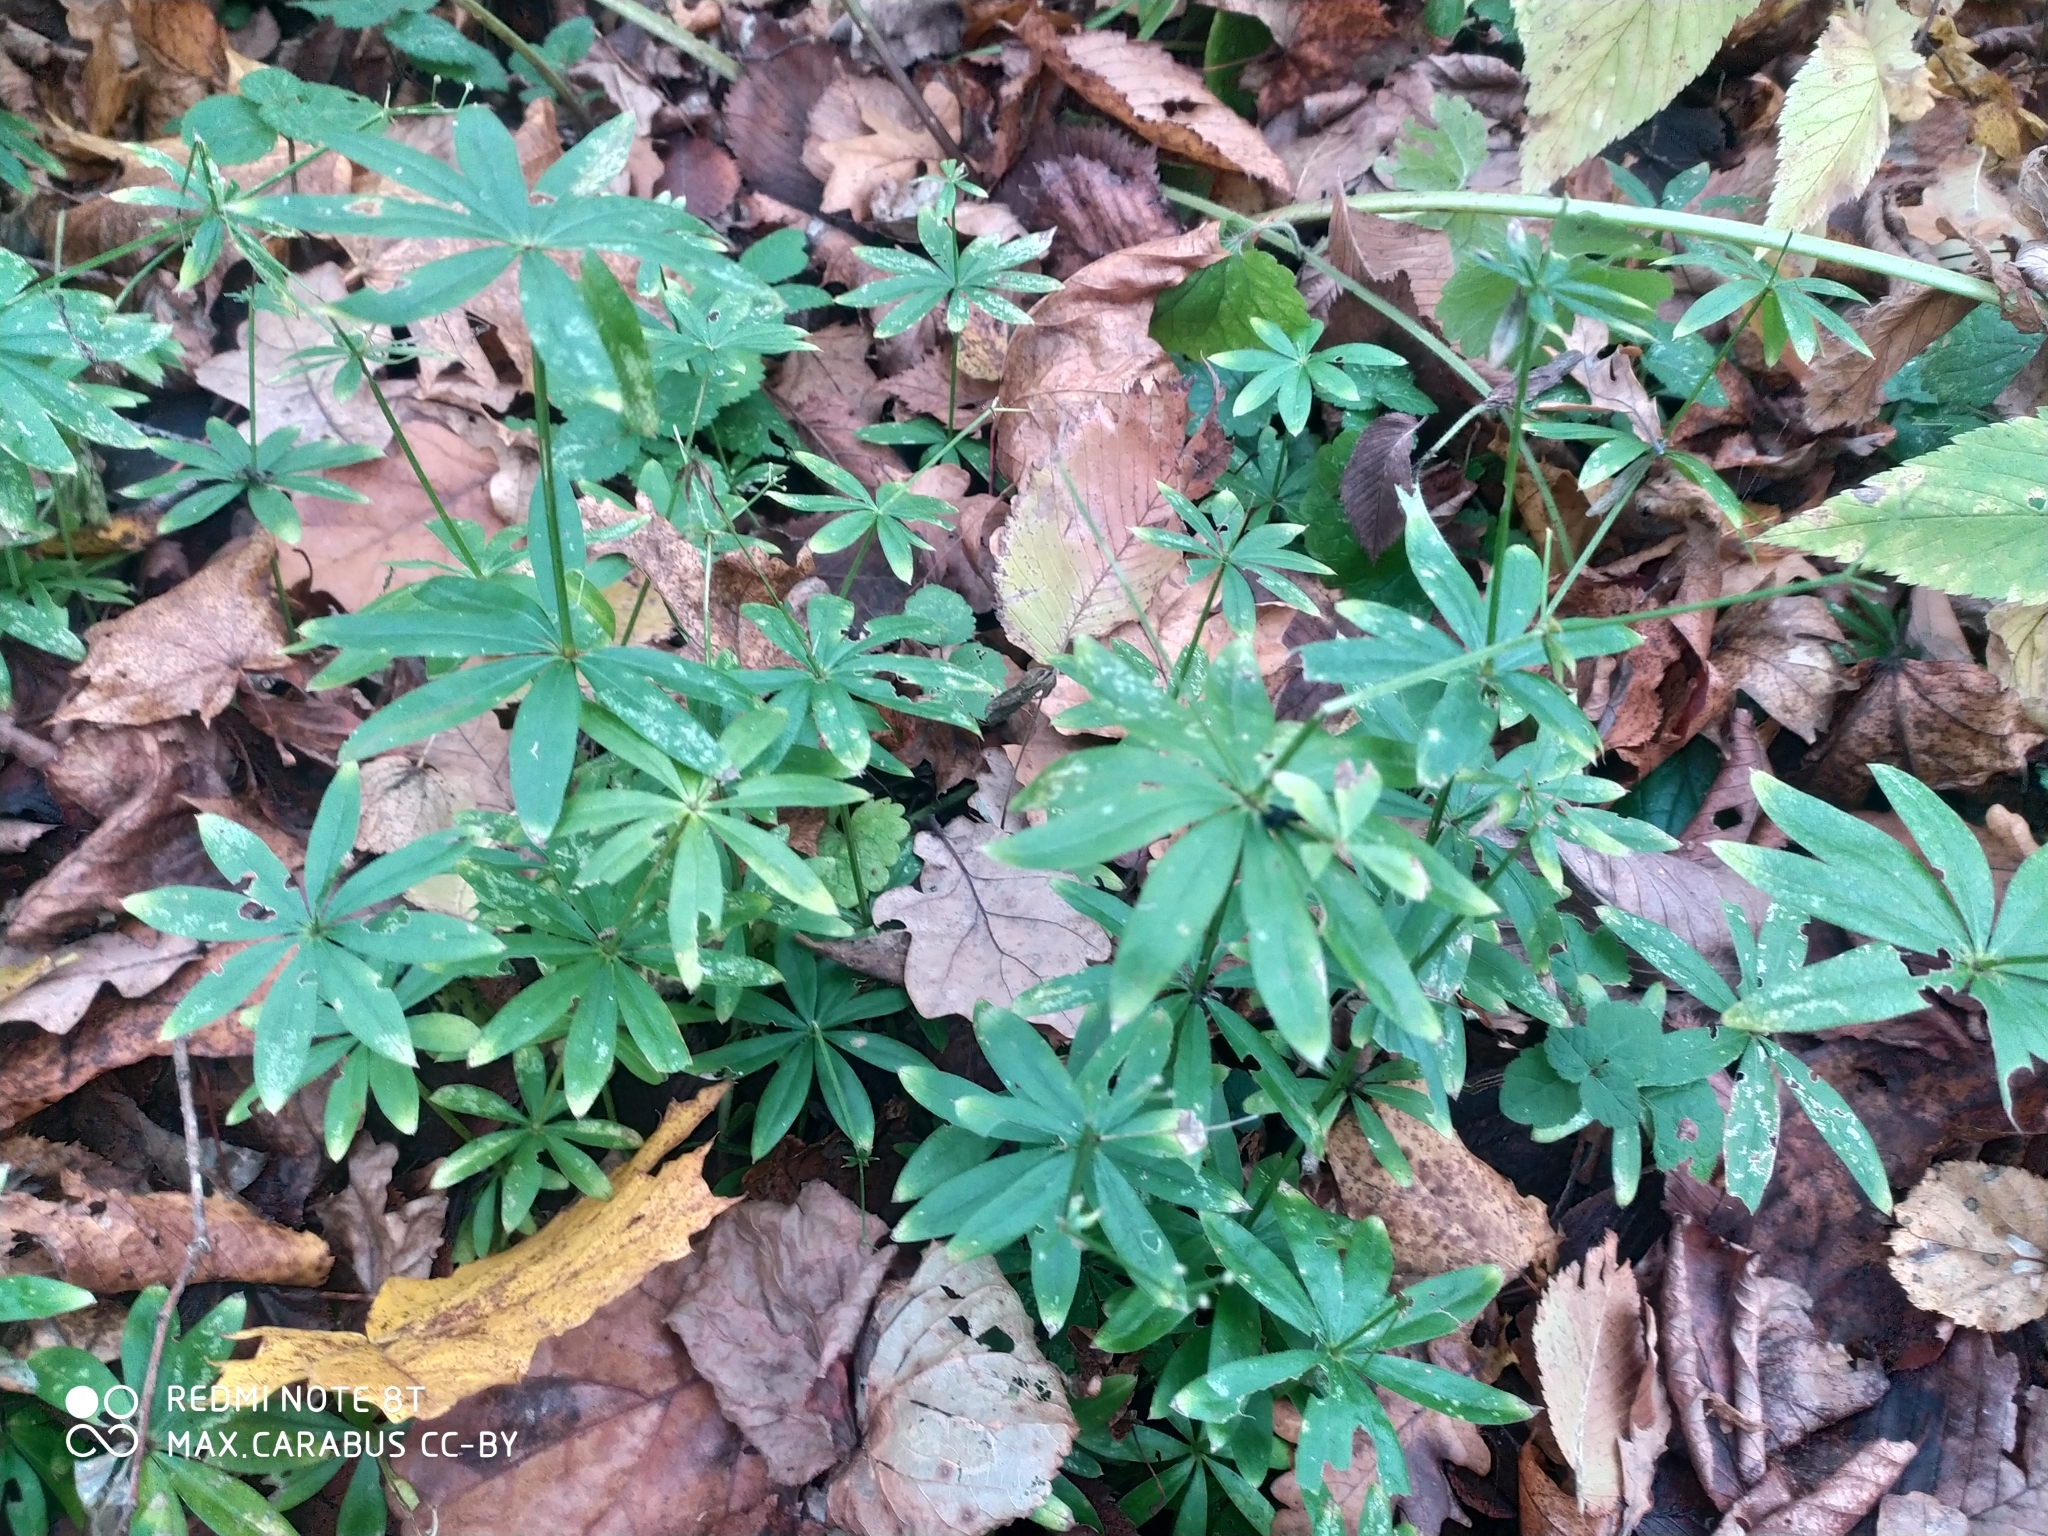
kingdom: Plantae
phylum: Tracheophyta
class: Magnoliopsida
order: Gentianales
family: Rubiaceae
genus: Galium
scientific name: Galium odoratum
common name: Sweet woodruff
